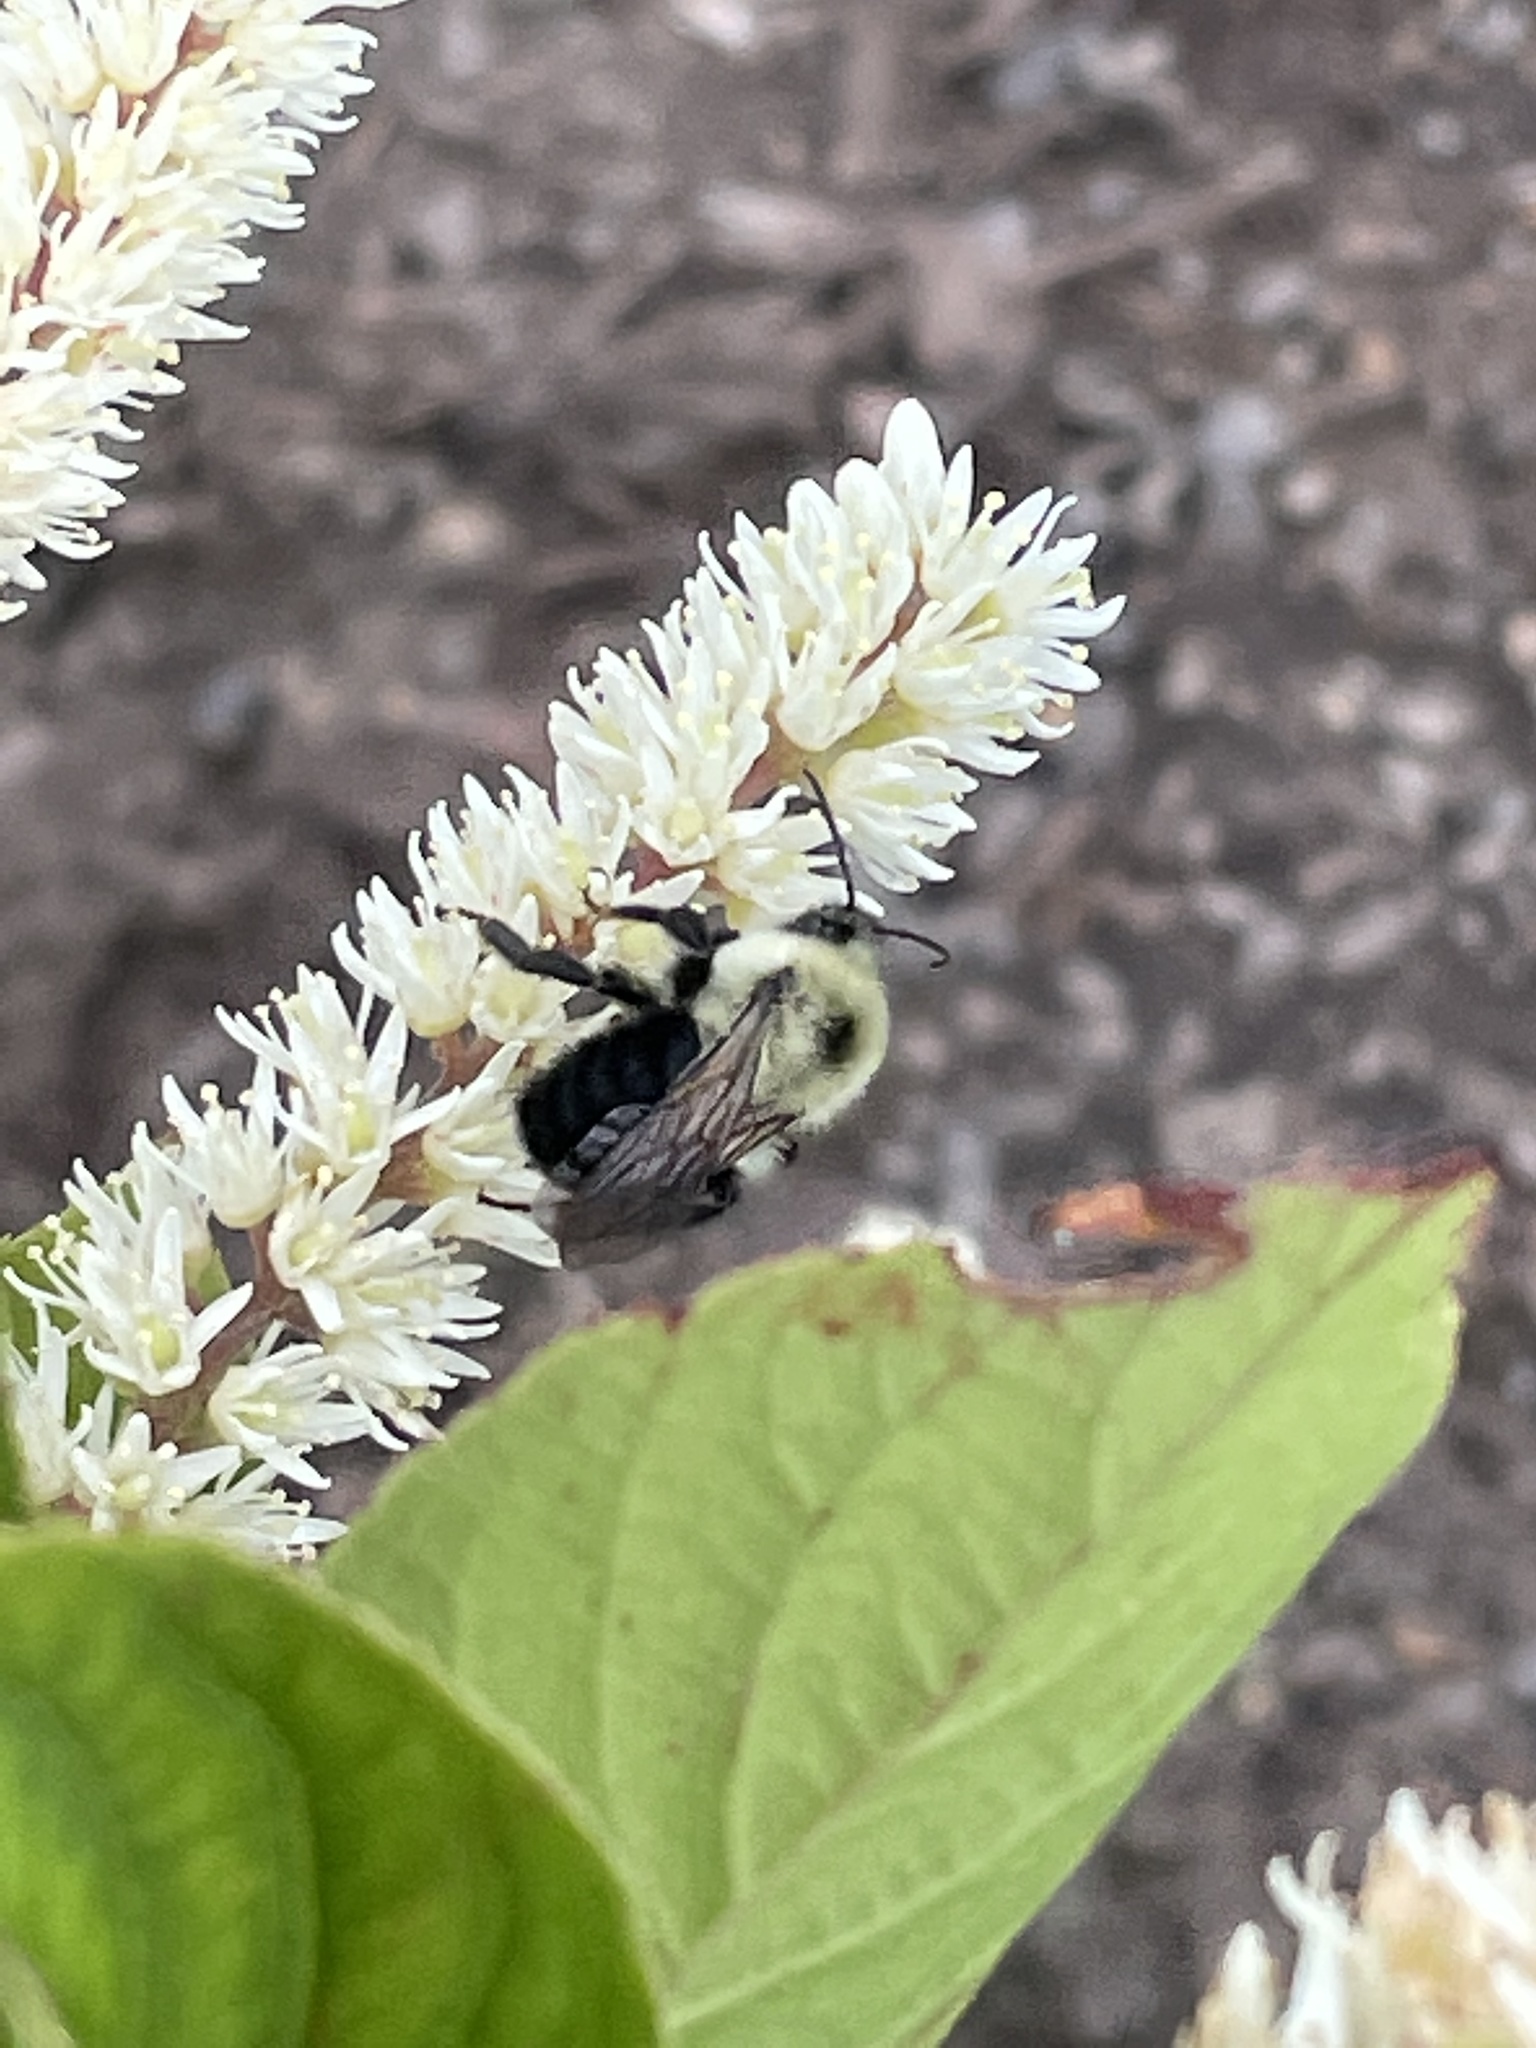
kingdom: Animalia
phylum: Arthropoda
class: Insecta
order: Hymenoptera
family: Apidae
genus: Bombus
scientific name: Bombus bimaculatus
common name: Two-spotted bumble bee
